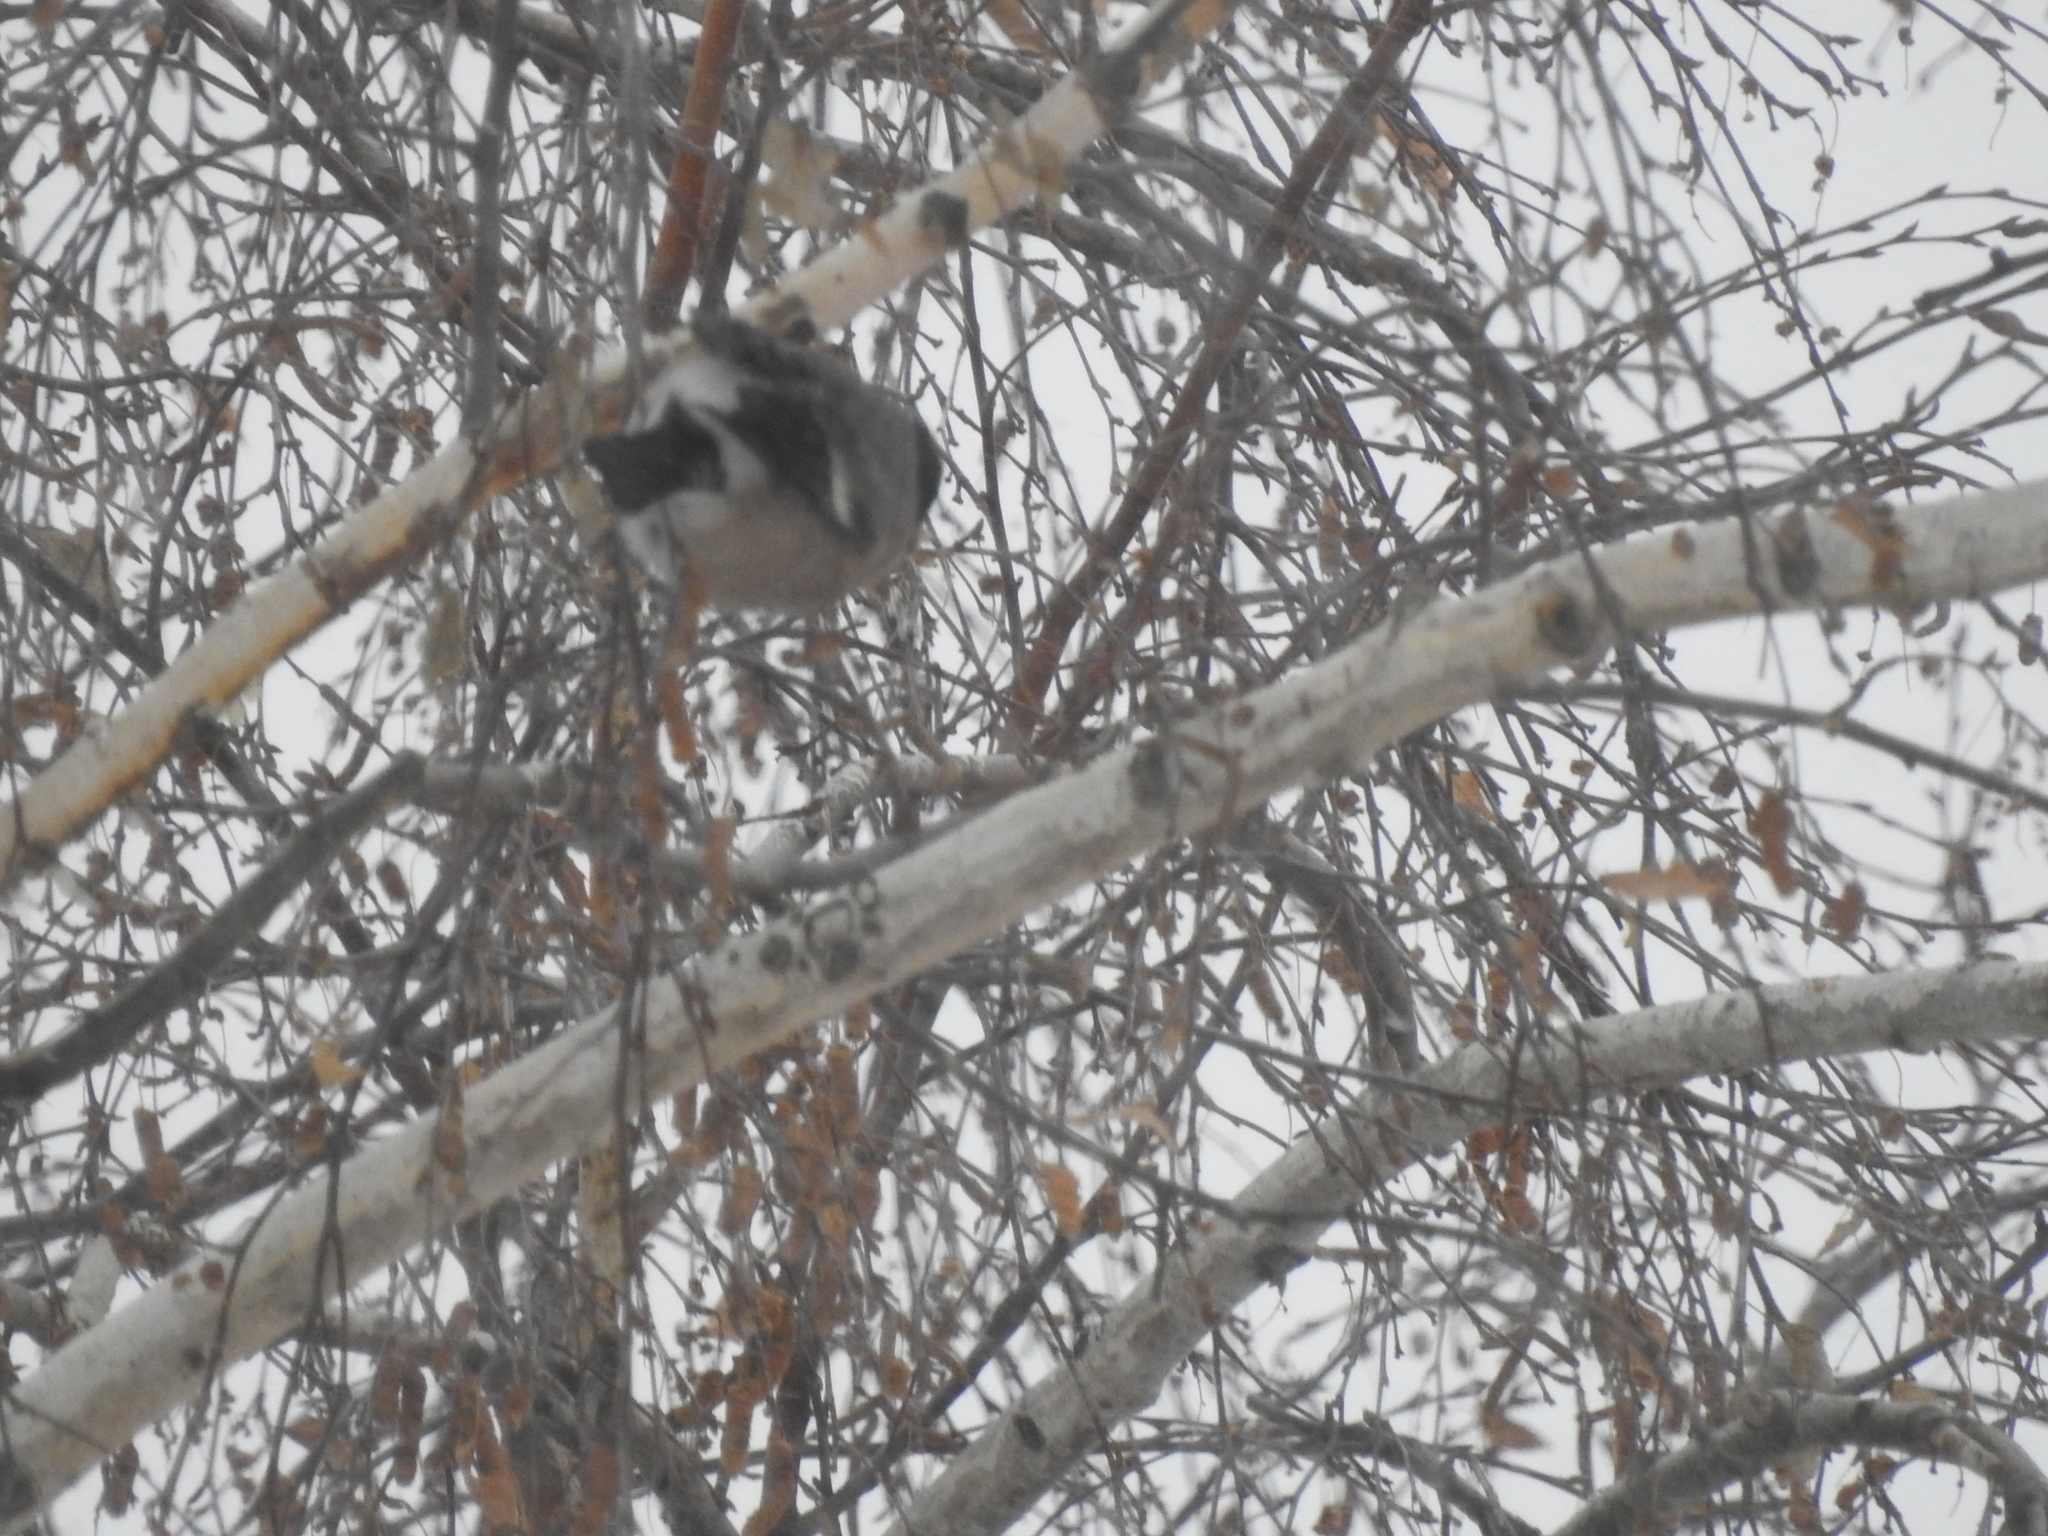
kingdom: Animalia
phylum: Chordata
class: Aves
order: Passeriformes
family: Fringillidae
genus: Pyrrhula
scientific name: Pyrrhula pyrrhula
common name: Eurasian bullfinch
